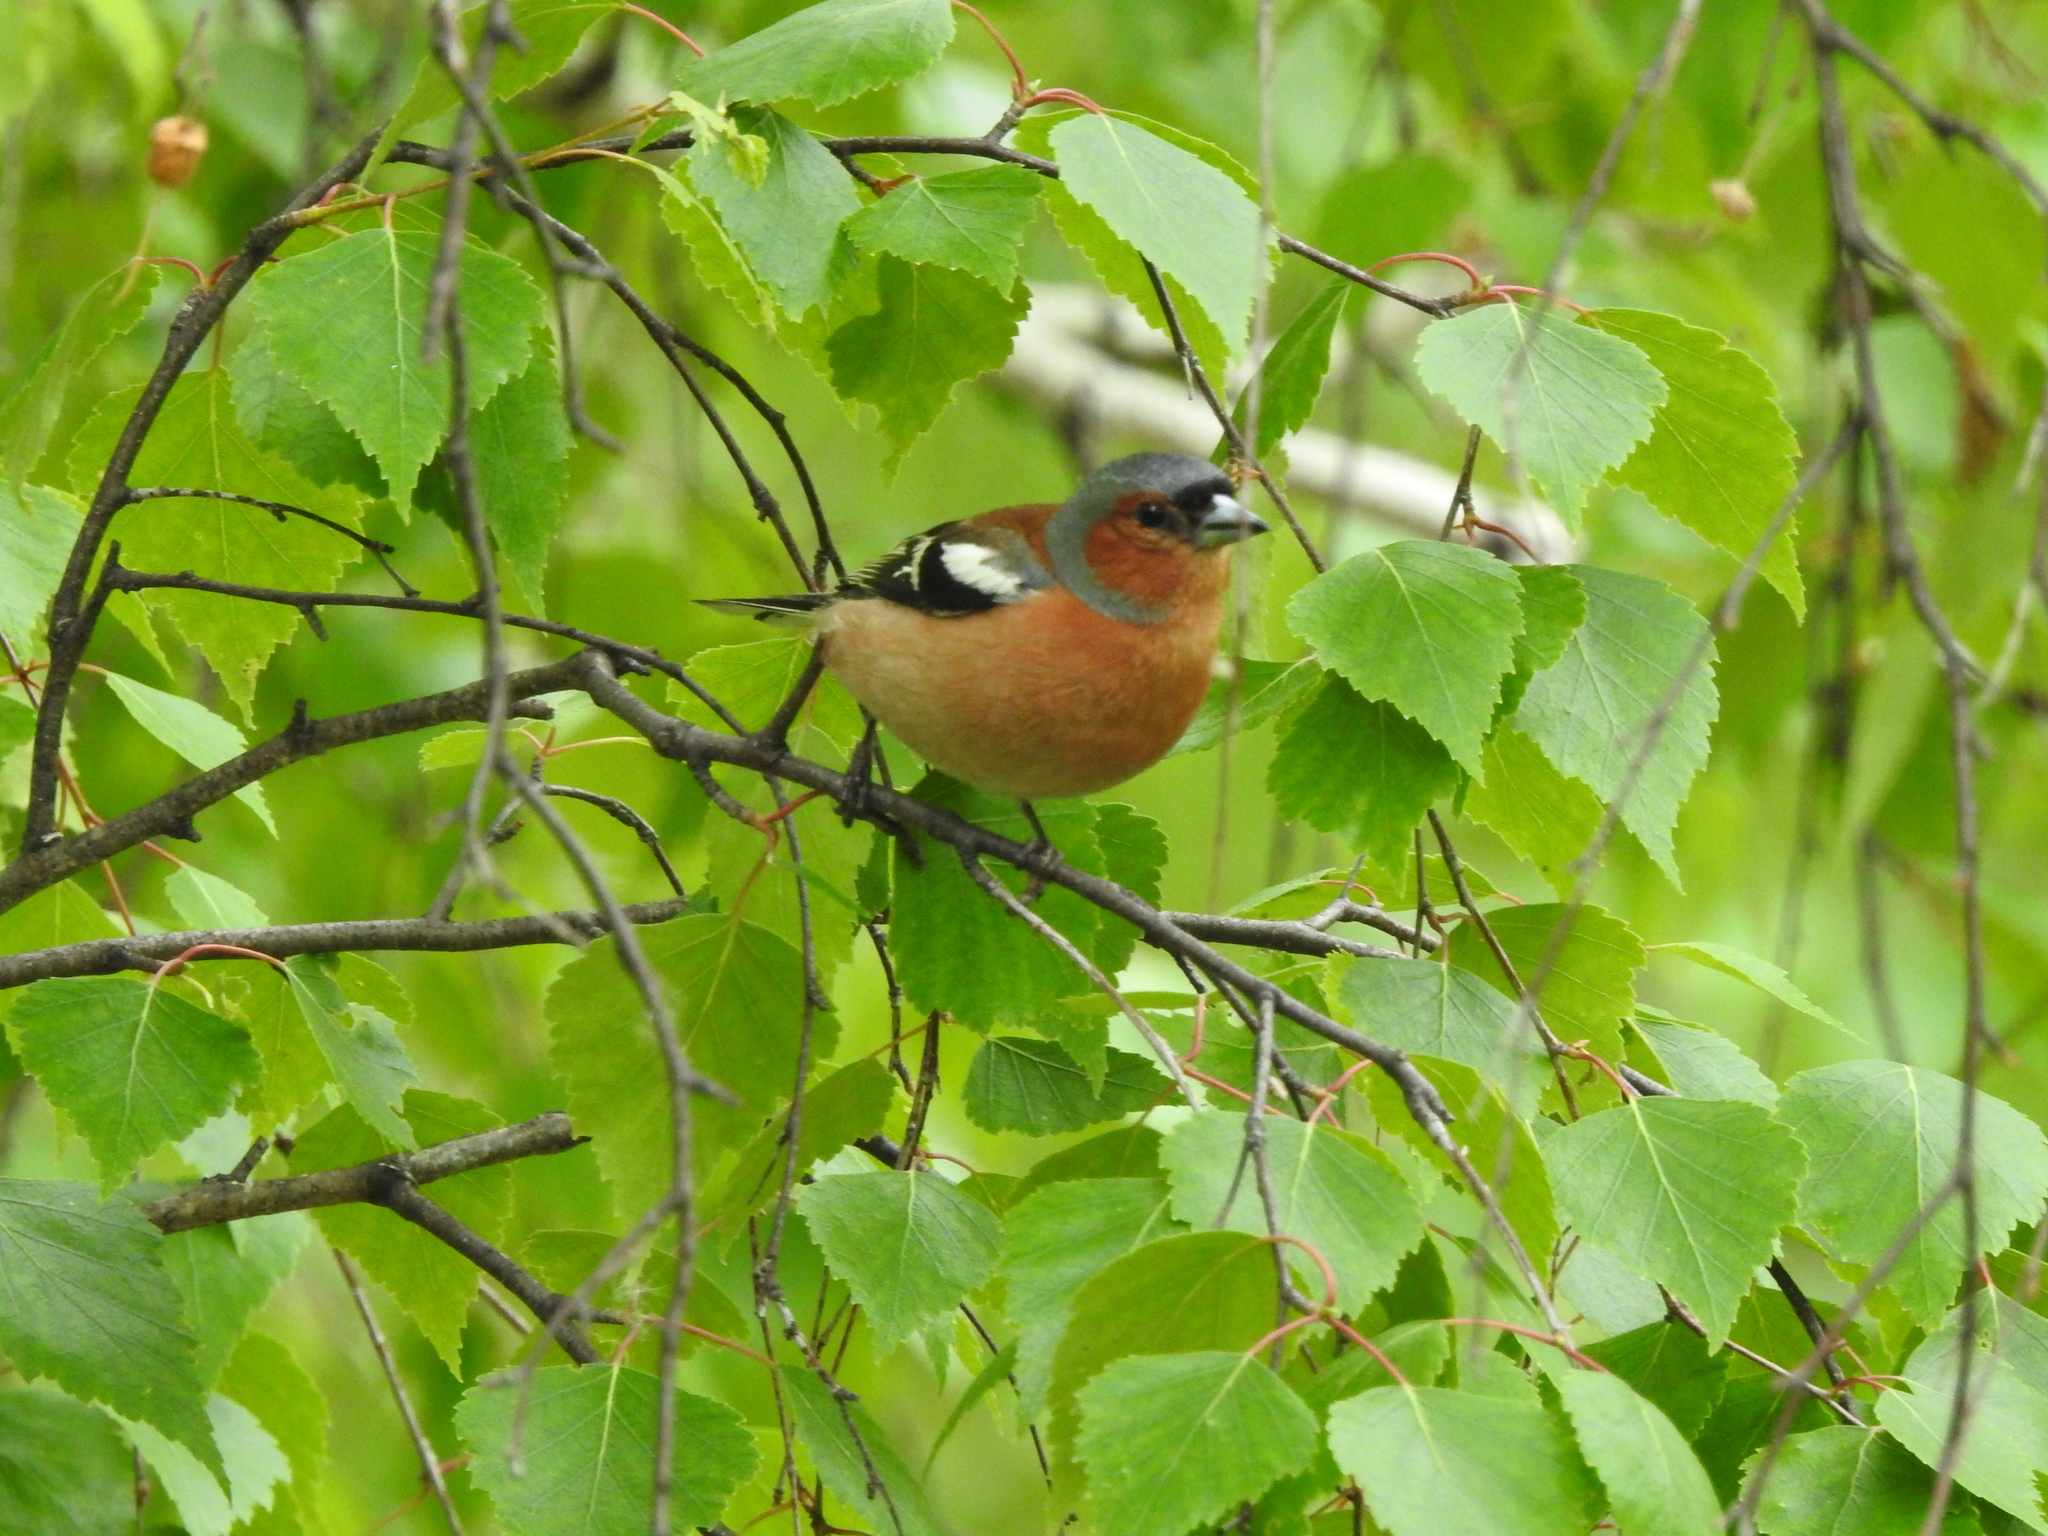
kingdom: Animalia
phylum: Chordata
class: Aves
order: Passeriformes
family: Fringillidae
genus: Fringilla
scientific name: Fringilla coelebs
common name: Common chaffinch
